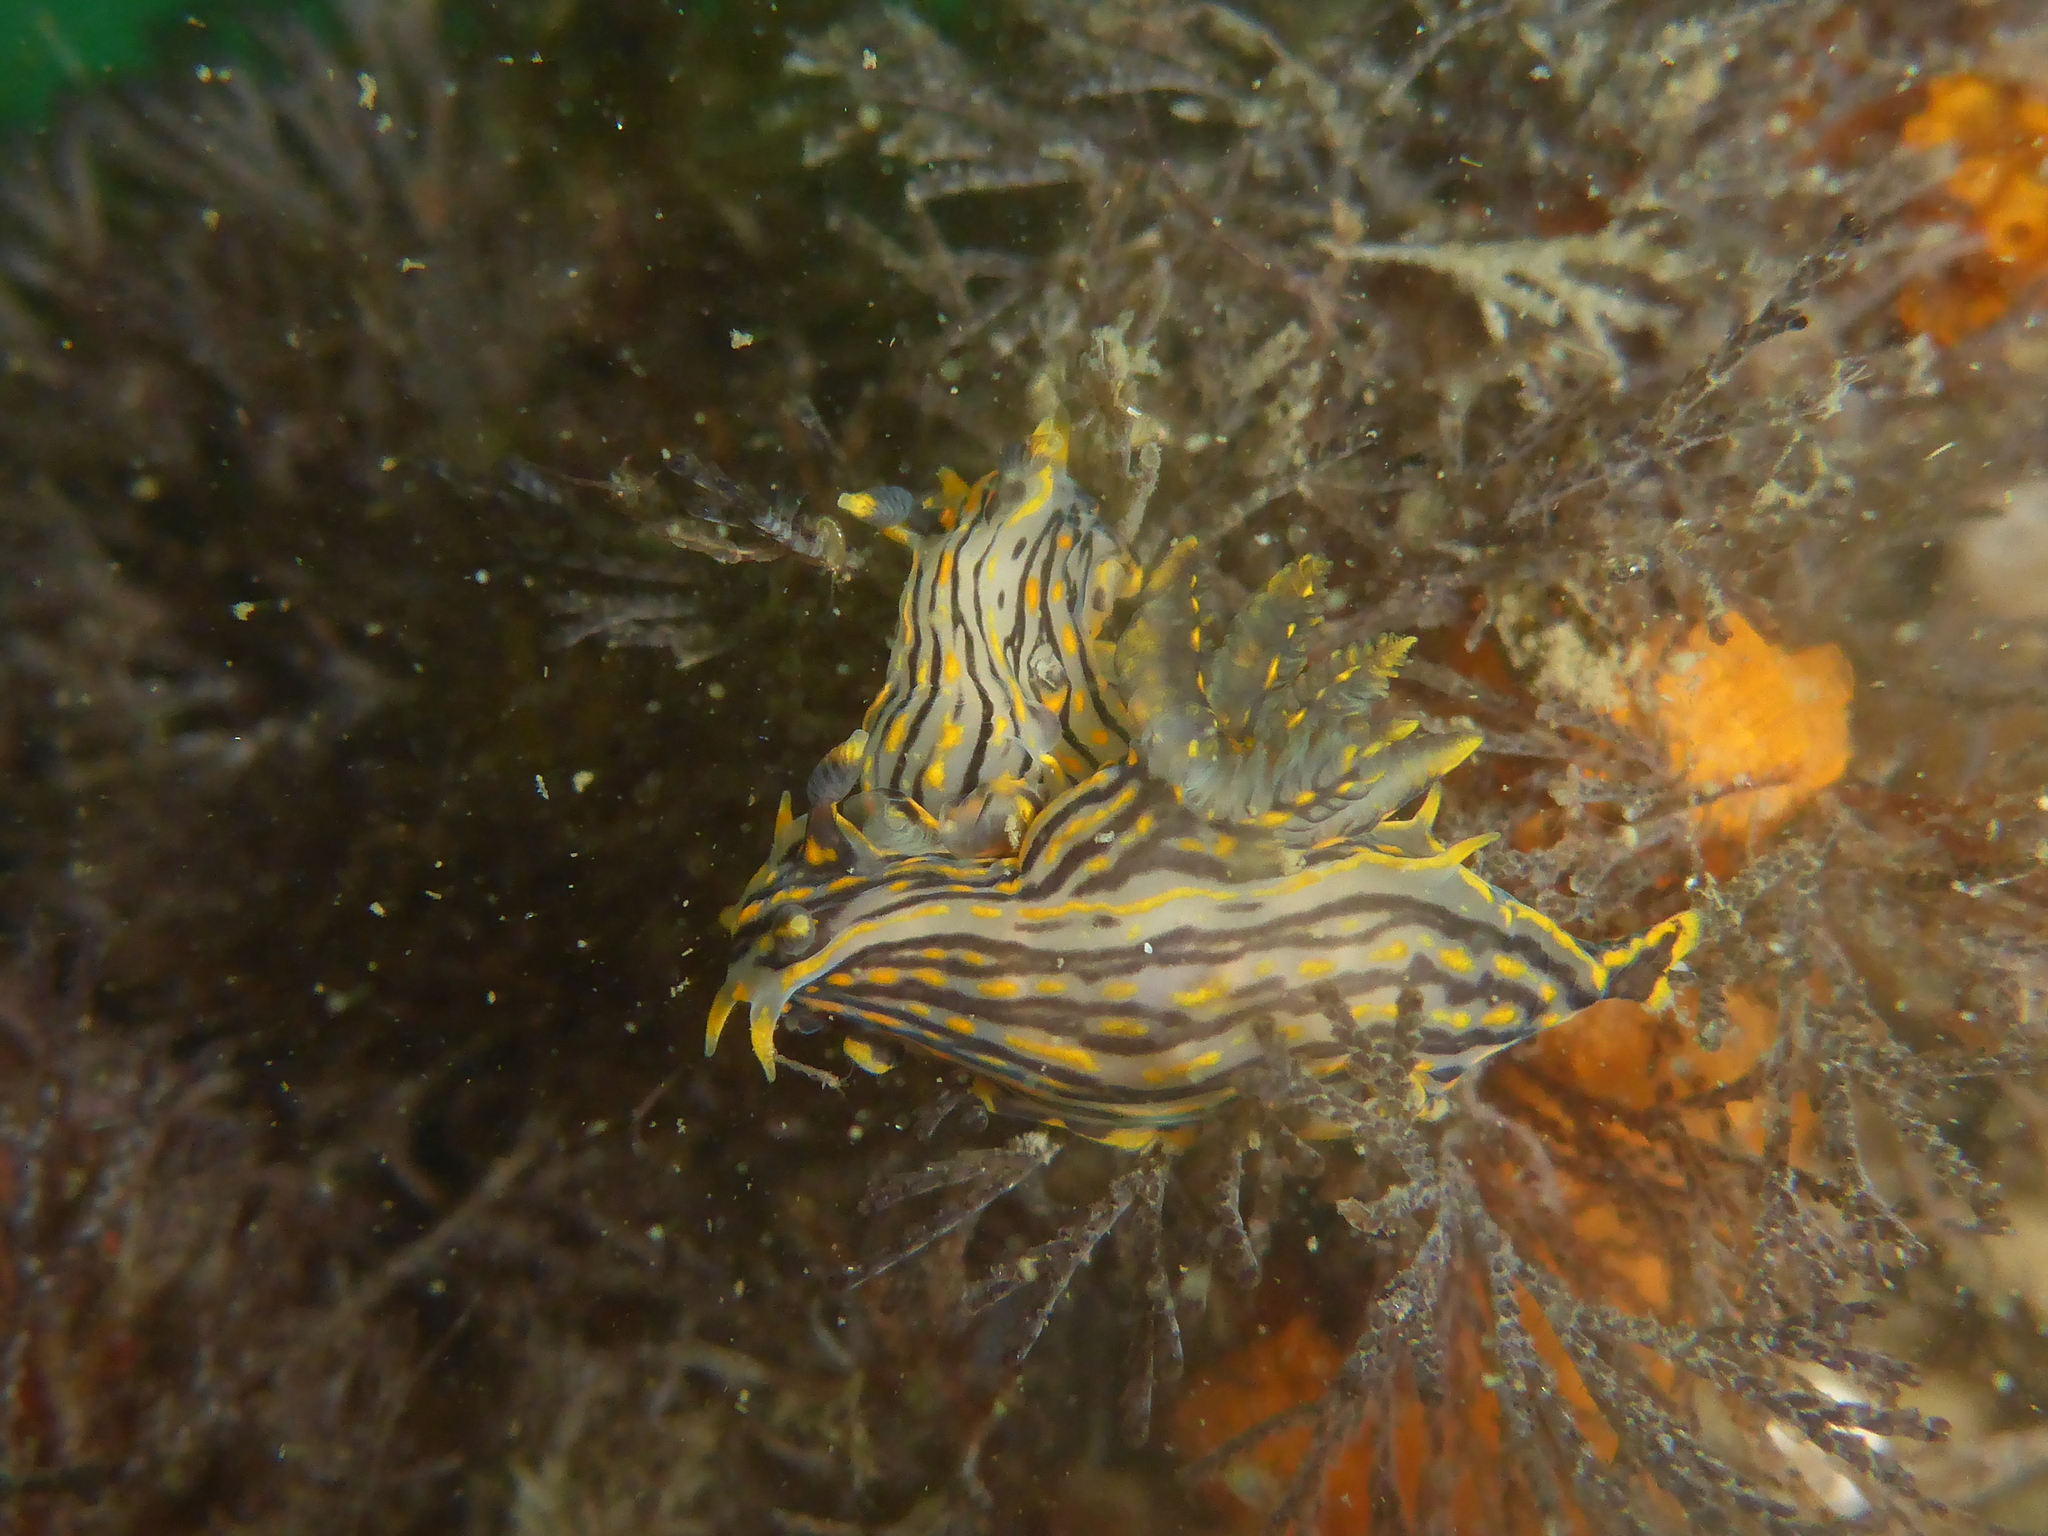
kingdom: Animalia
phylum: Mollusca
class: Gastropoda
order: Nudibranchia
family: Polyceridae
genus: Polycera
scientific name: Polycera atra
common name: Orange-spike polycera
